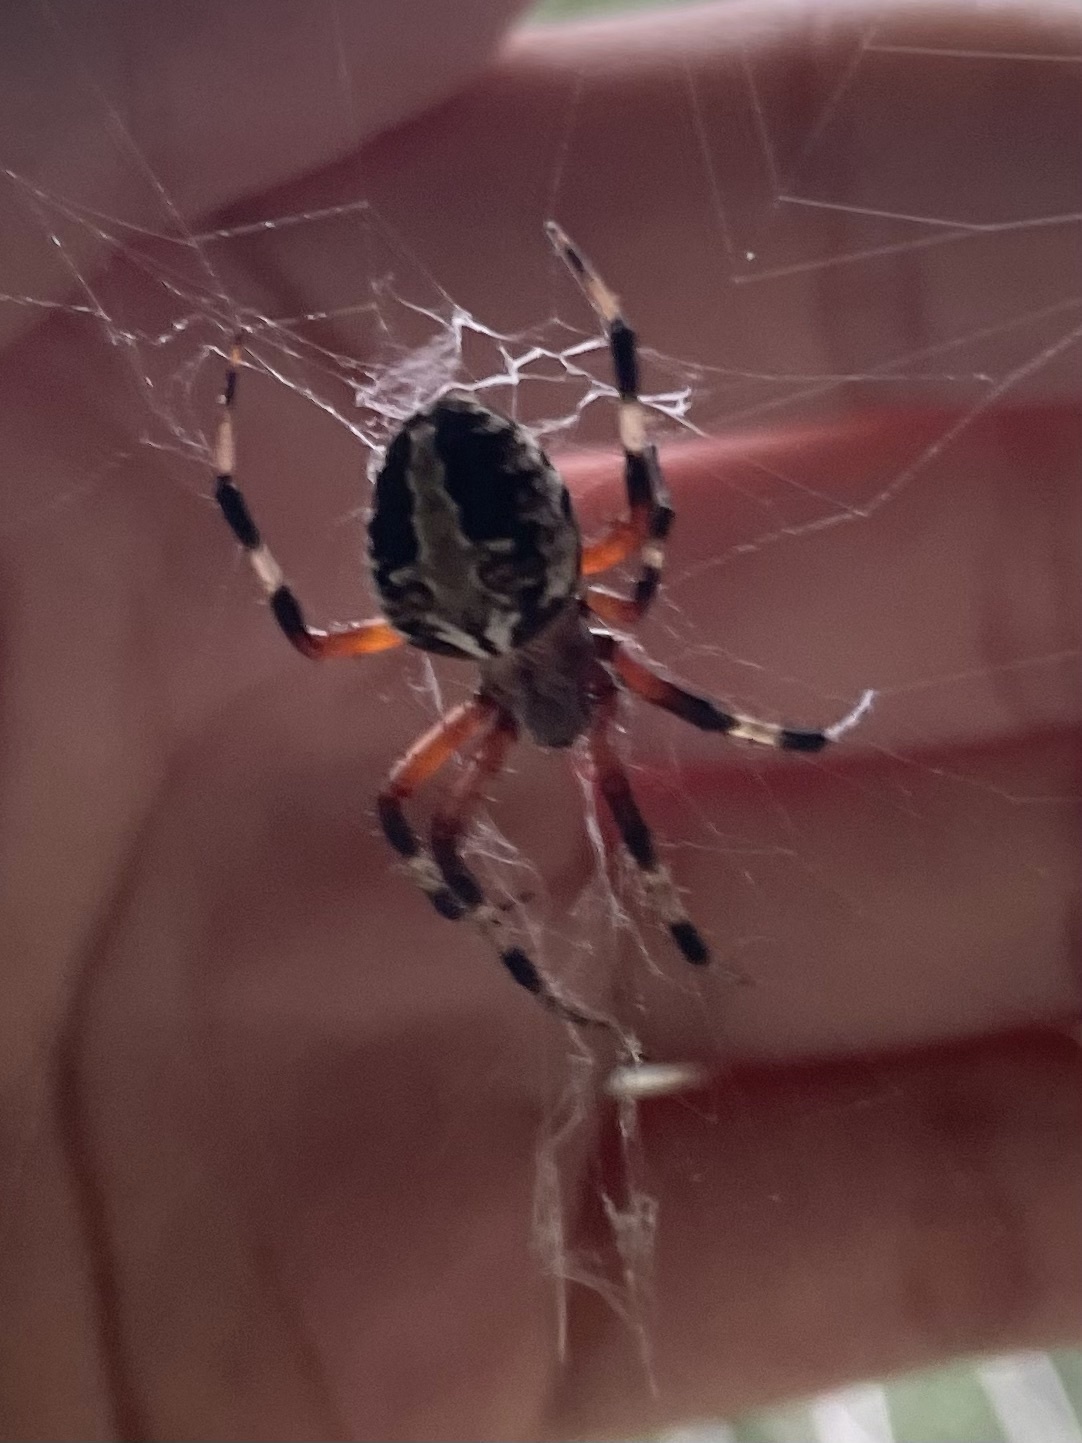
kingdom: Animalia
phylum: Arthropoda
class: Arachnida
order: Araneae
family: Araneidae
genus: Neoscona
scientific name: Neoscona domiciliorum
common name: Red-femured spotted orbweaver
